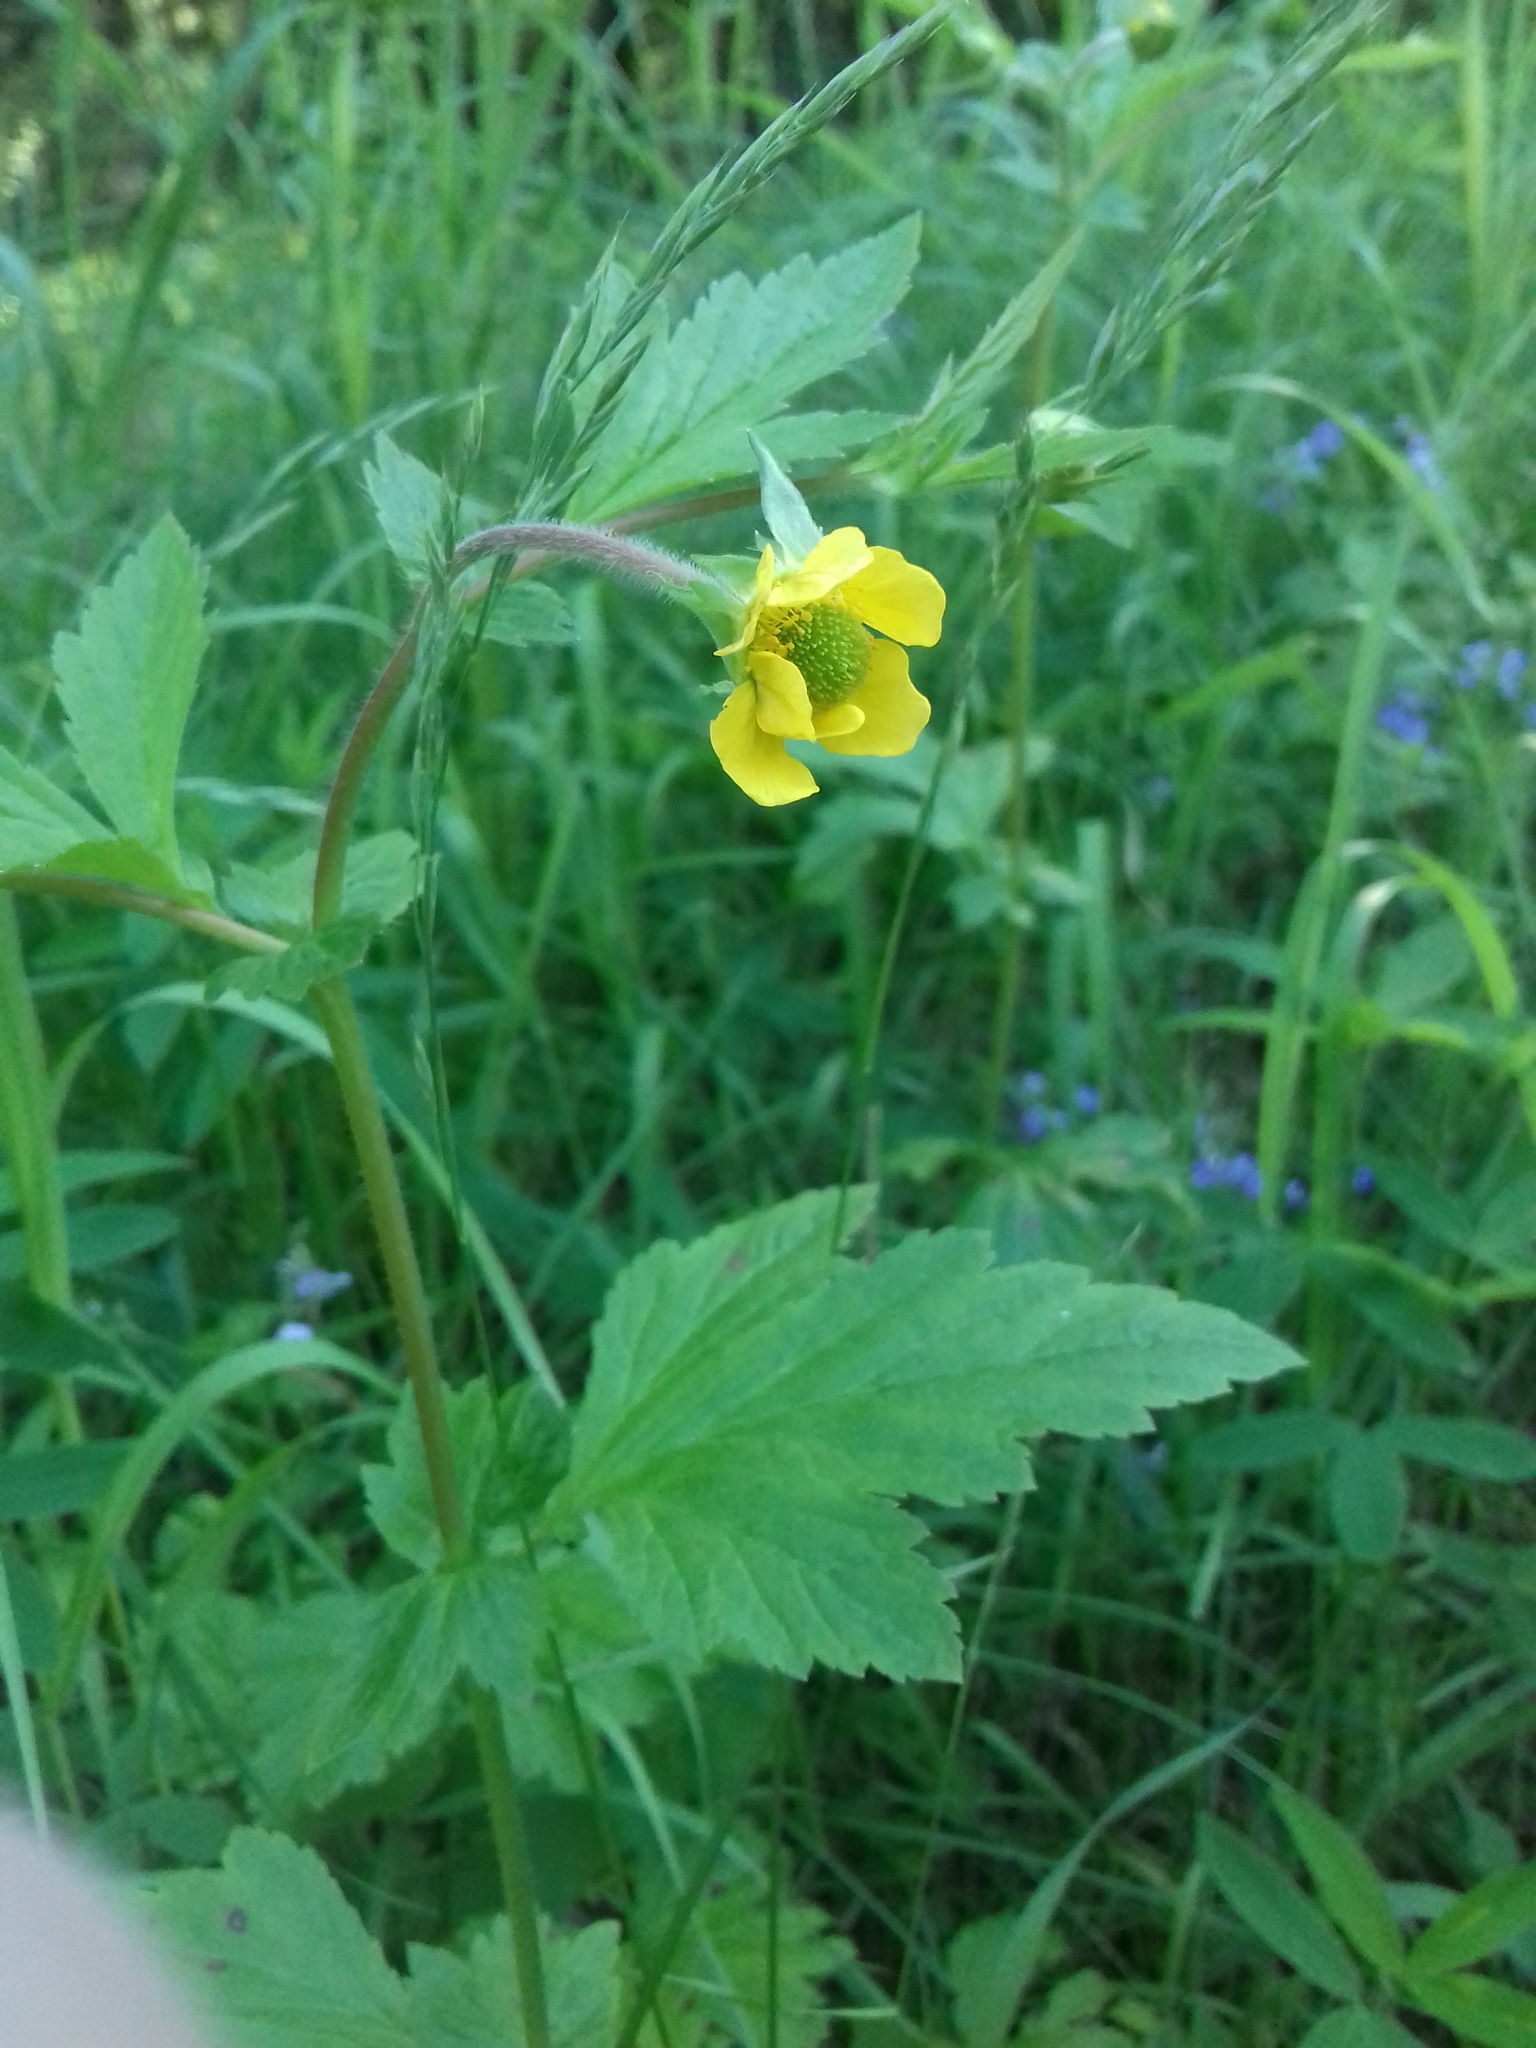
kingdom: Plantae
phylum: Tracheophyta
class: Magnoliopsida
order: Rosales
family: Rosaceae
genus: Geum
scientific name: Geum aleppicum
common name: Yellow avens
